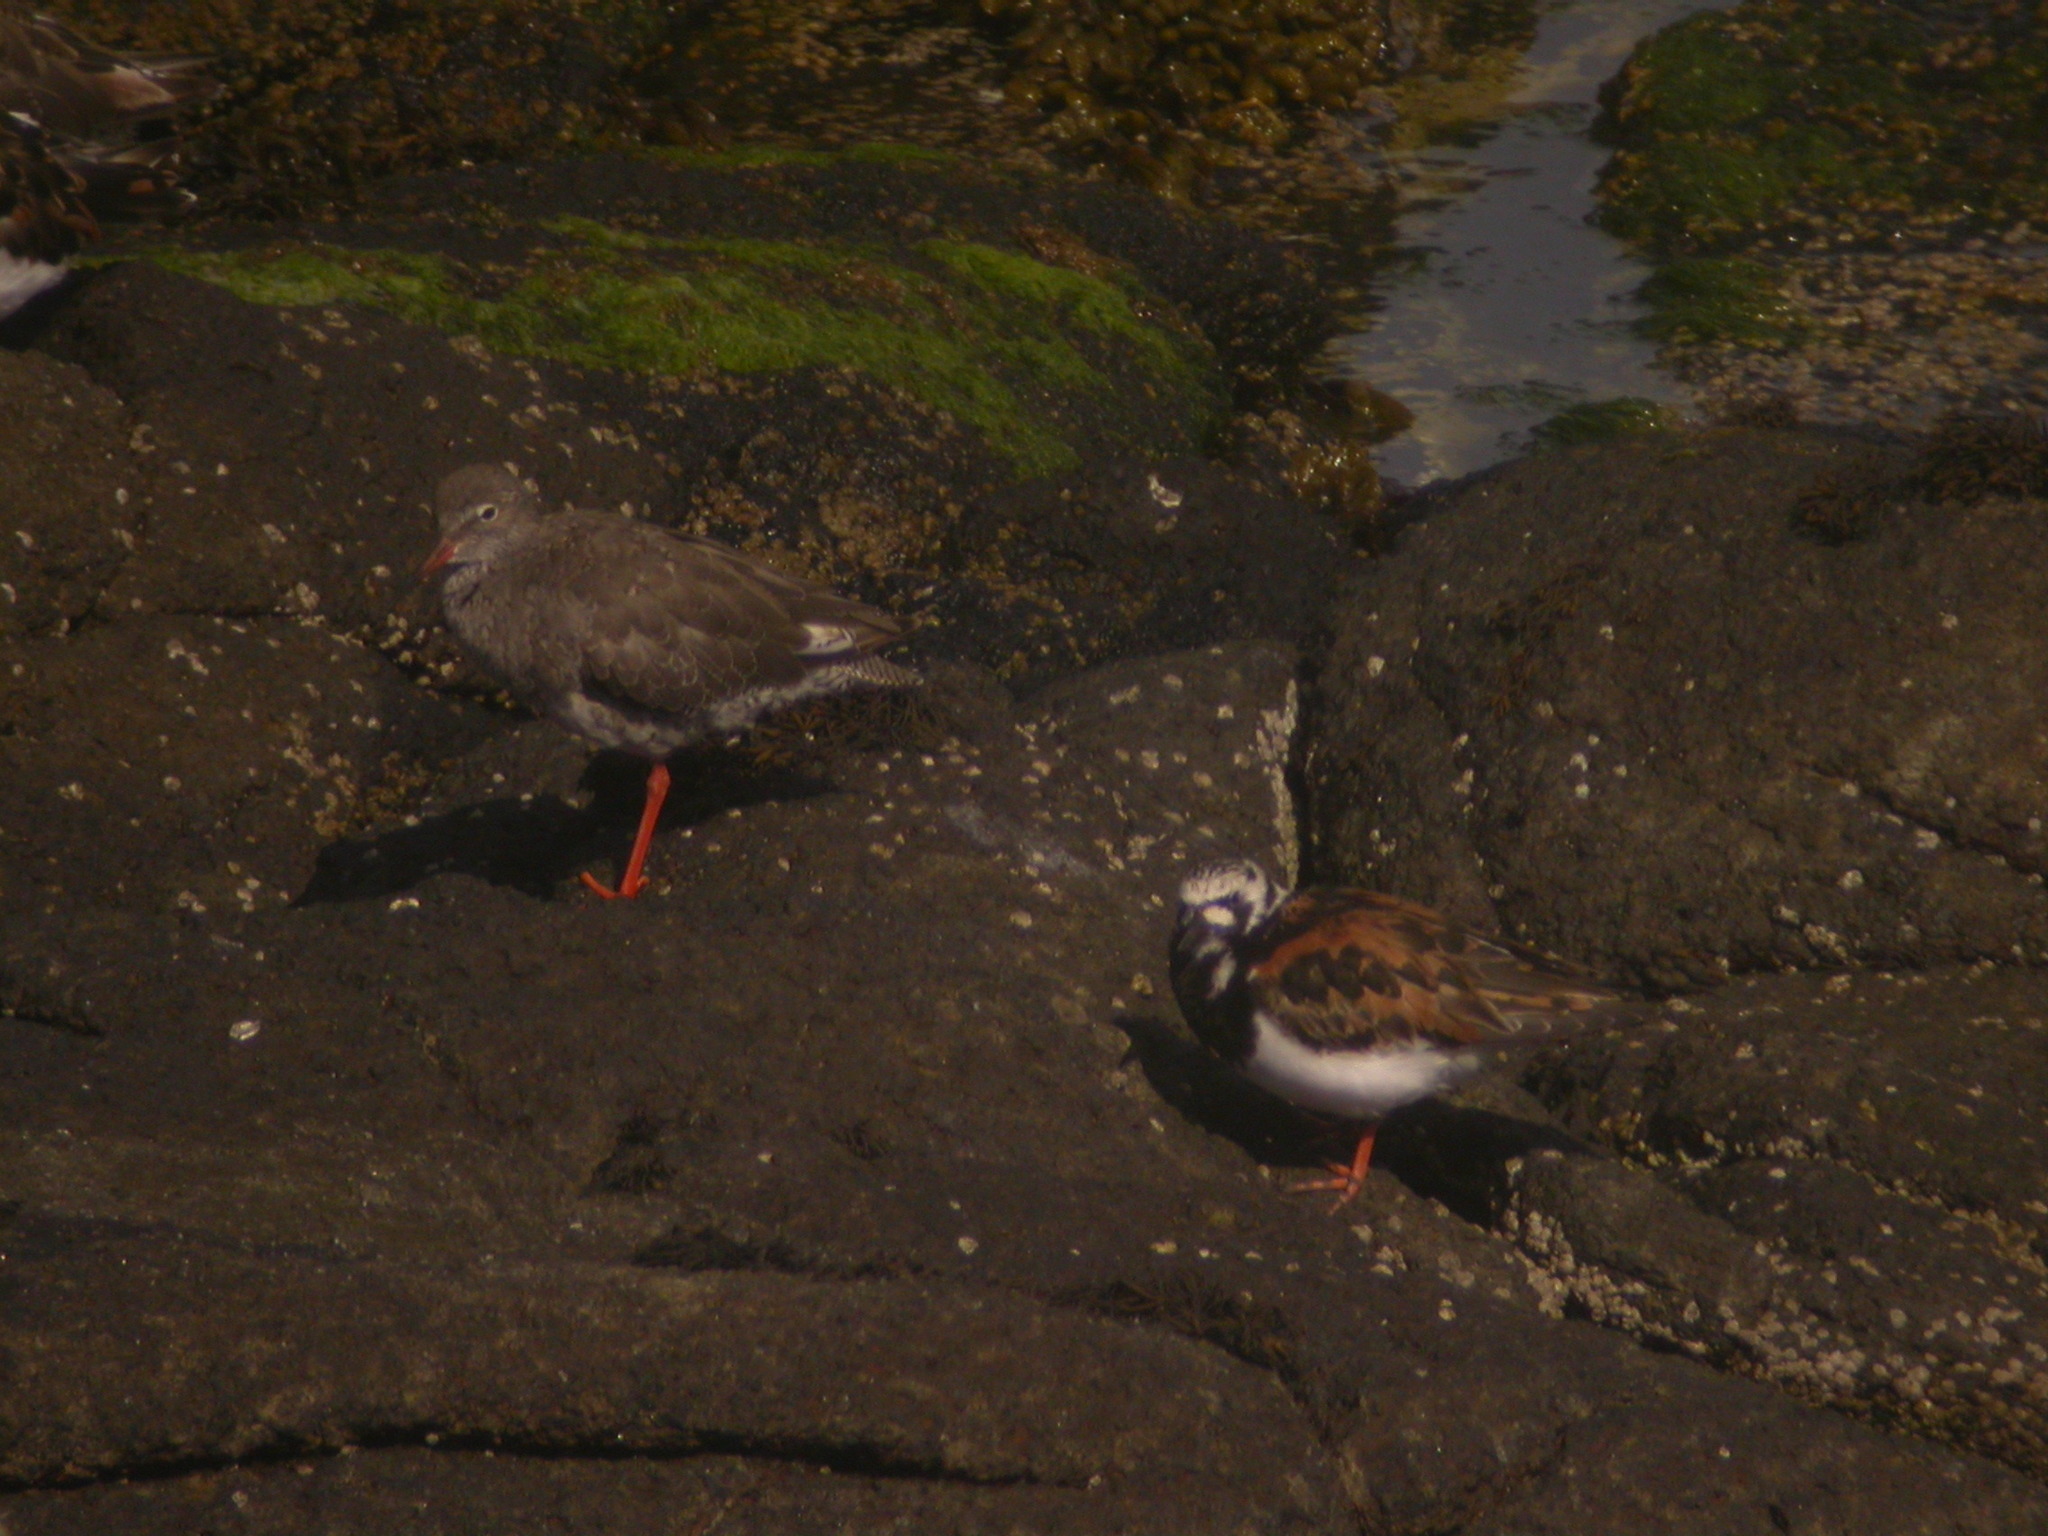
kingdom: Animalia
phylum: Chordata
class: Aves
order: Charadriiformes
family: Scolopacidae
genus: Tringa
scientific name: Tringa totanus
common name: Common redshank
